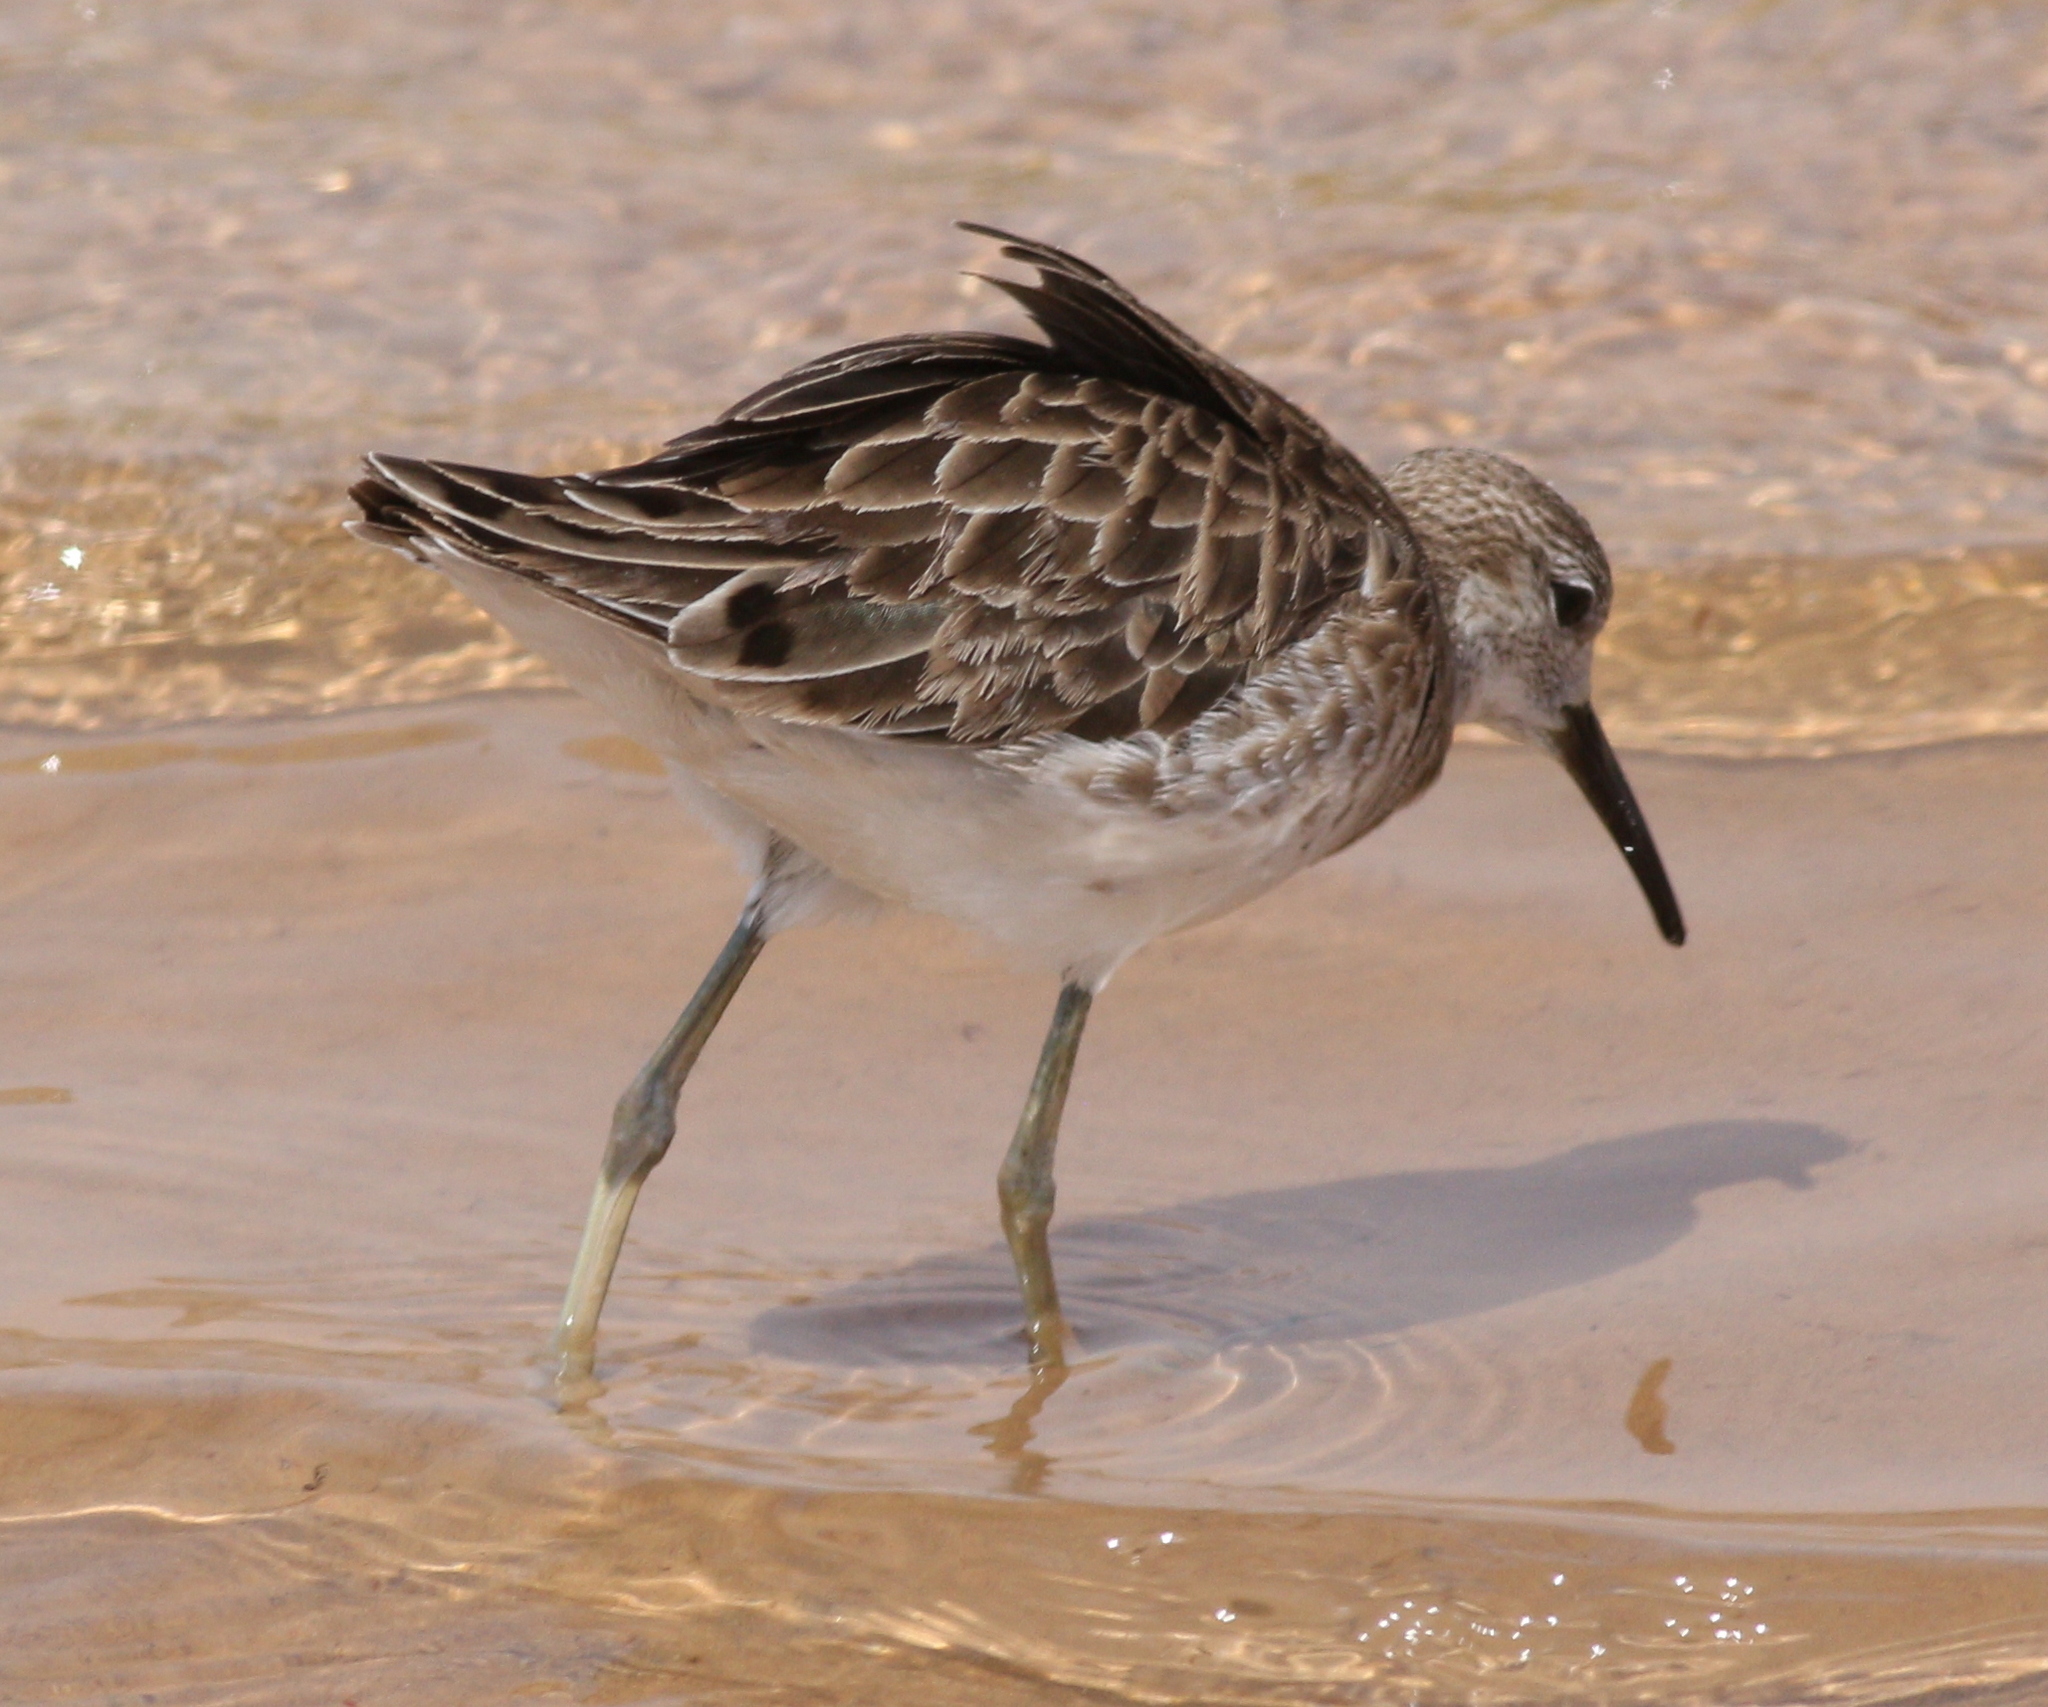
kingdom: Animalia
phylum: Chordata
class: Aves
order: Charadriiformes
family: Scolopacidae
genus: Calidris
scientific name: Calidris pugnax
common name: Ruff
